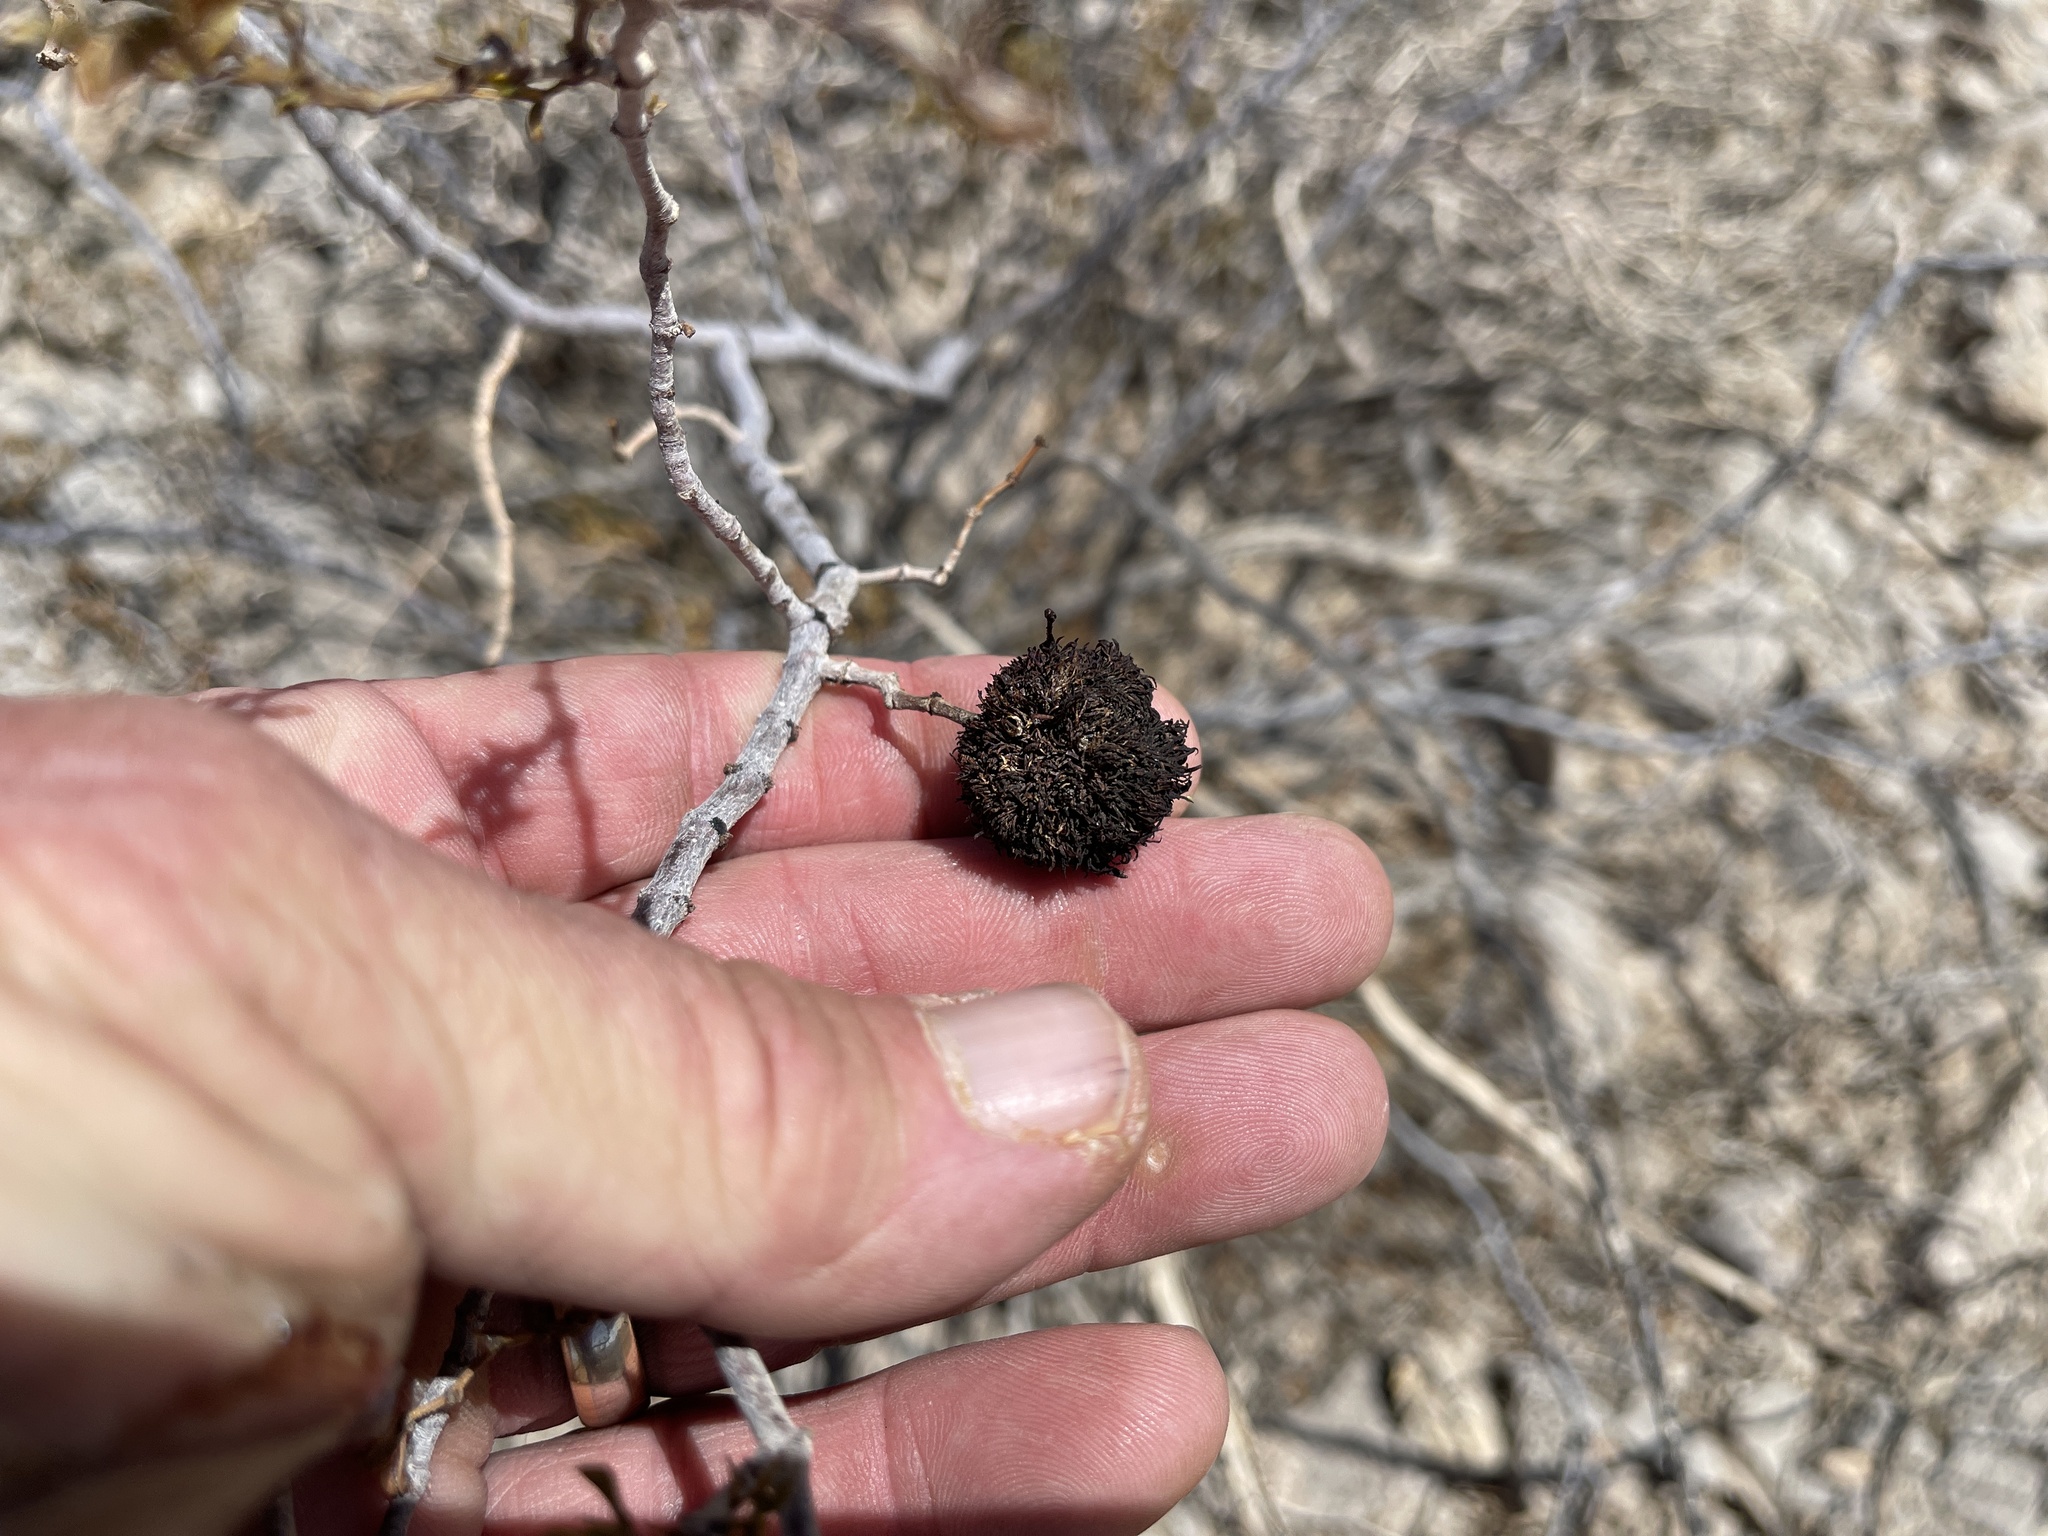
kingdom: Animalia
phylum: Arthropoda
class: Insecta
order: Diptera
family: Cecidomyiidae
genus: Asphondylia
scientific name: Asphondylia auripila
